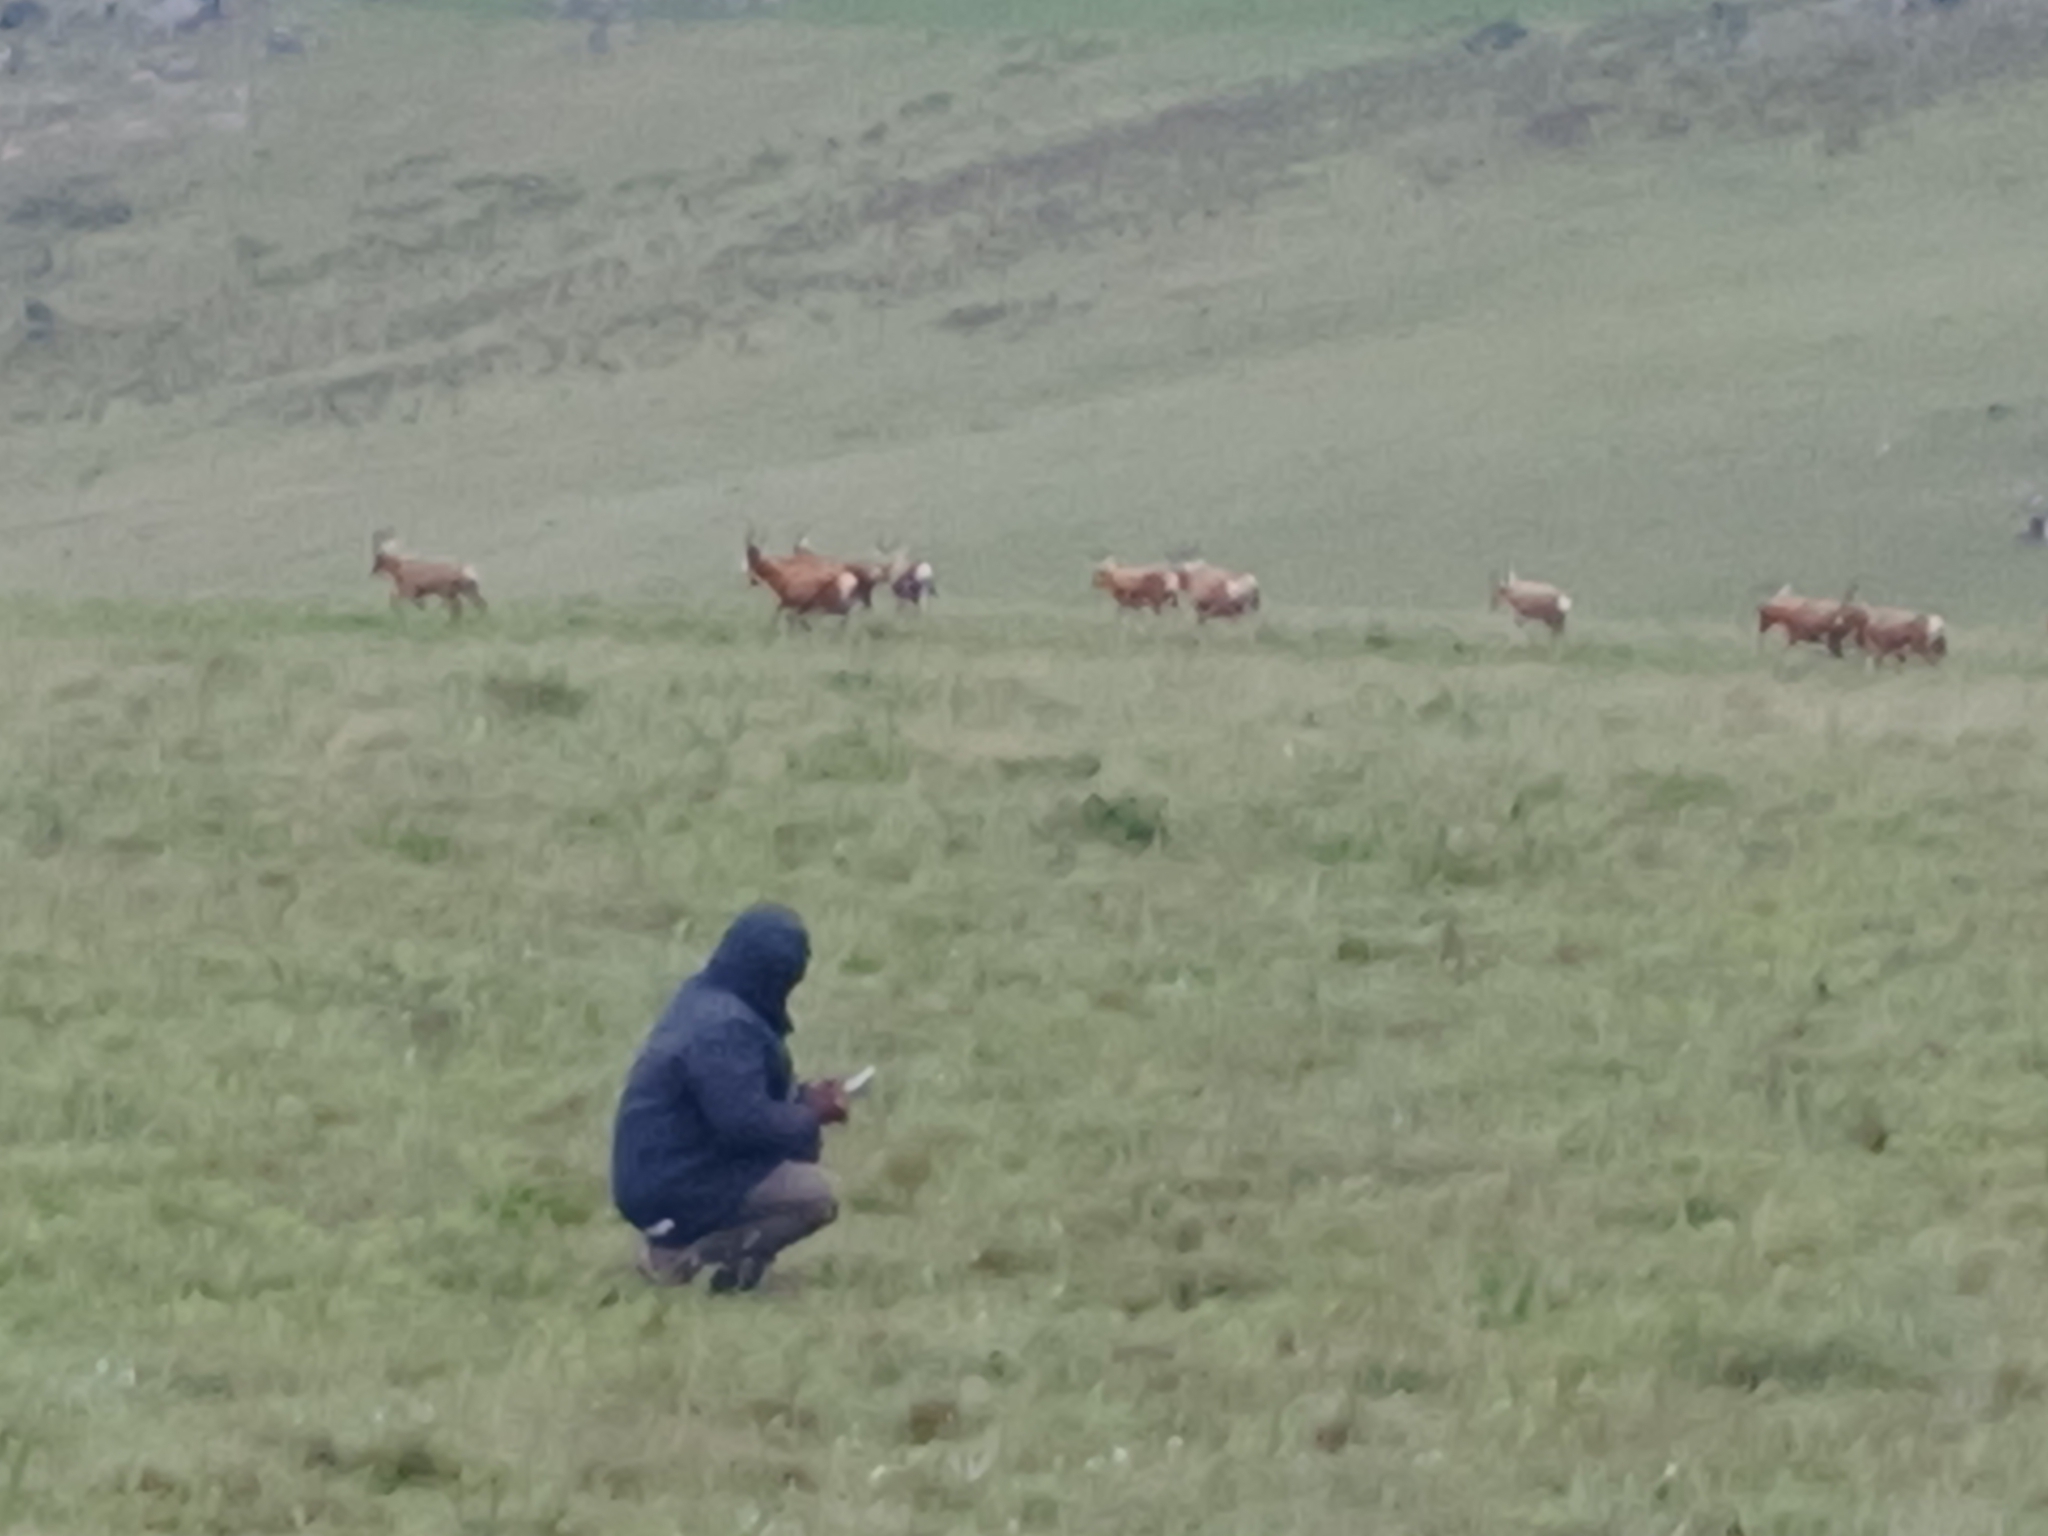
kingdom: Animalia
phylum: Chordata
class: Mammalia
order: Artiodactyla
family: Bovidae
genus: Damaliscus
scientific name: Damaliscus pygargus
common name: Bontebok
